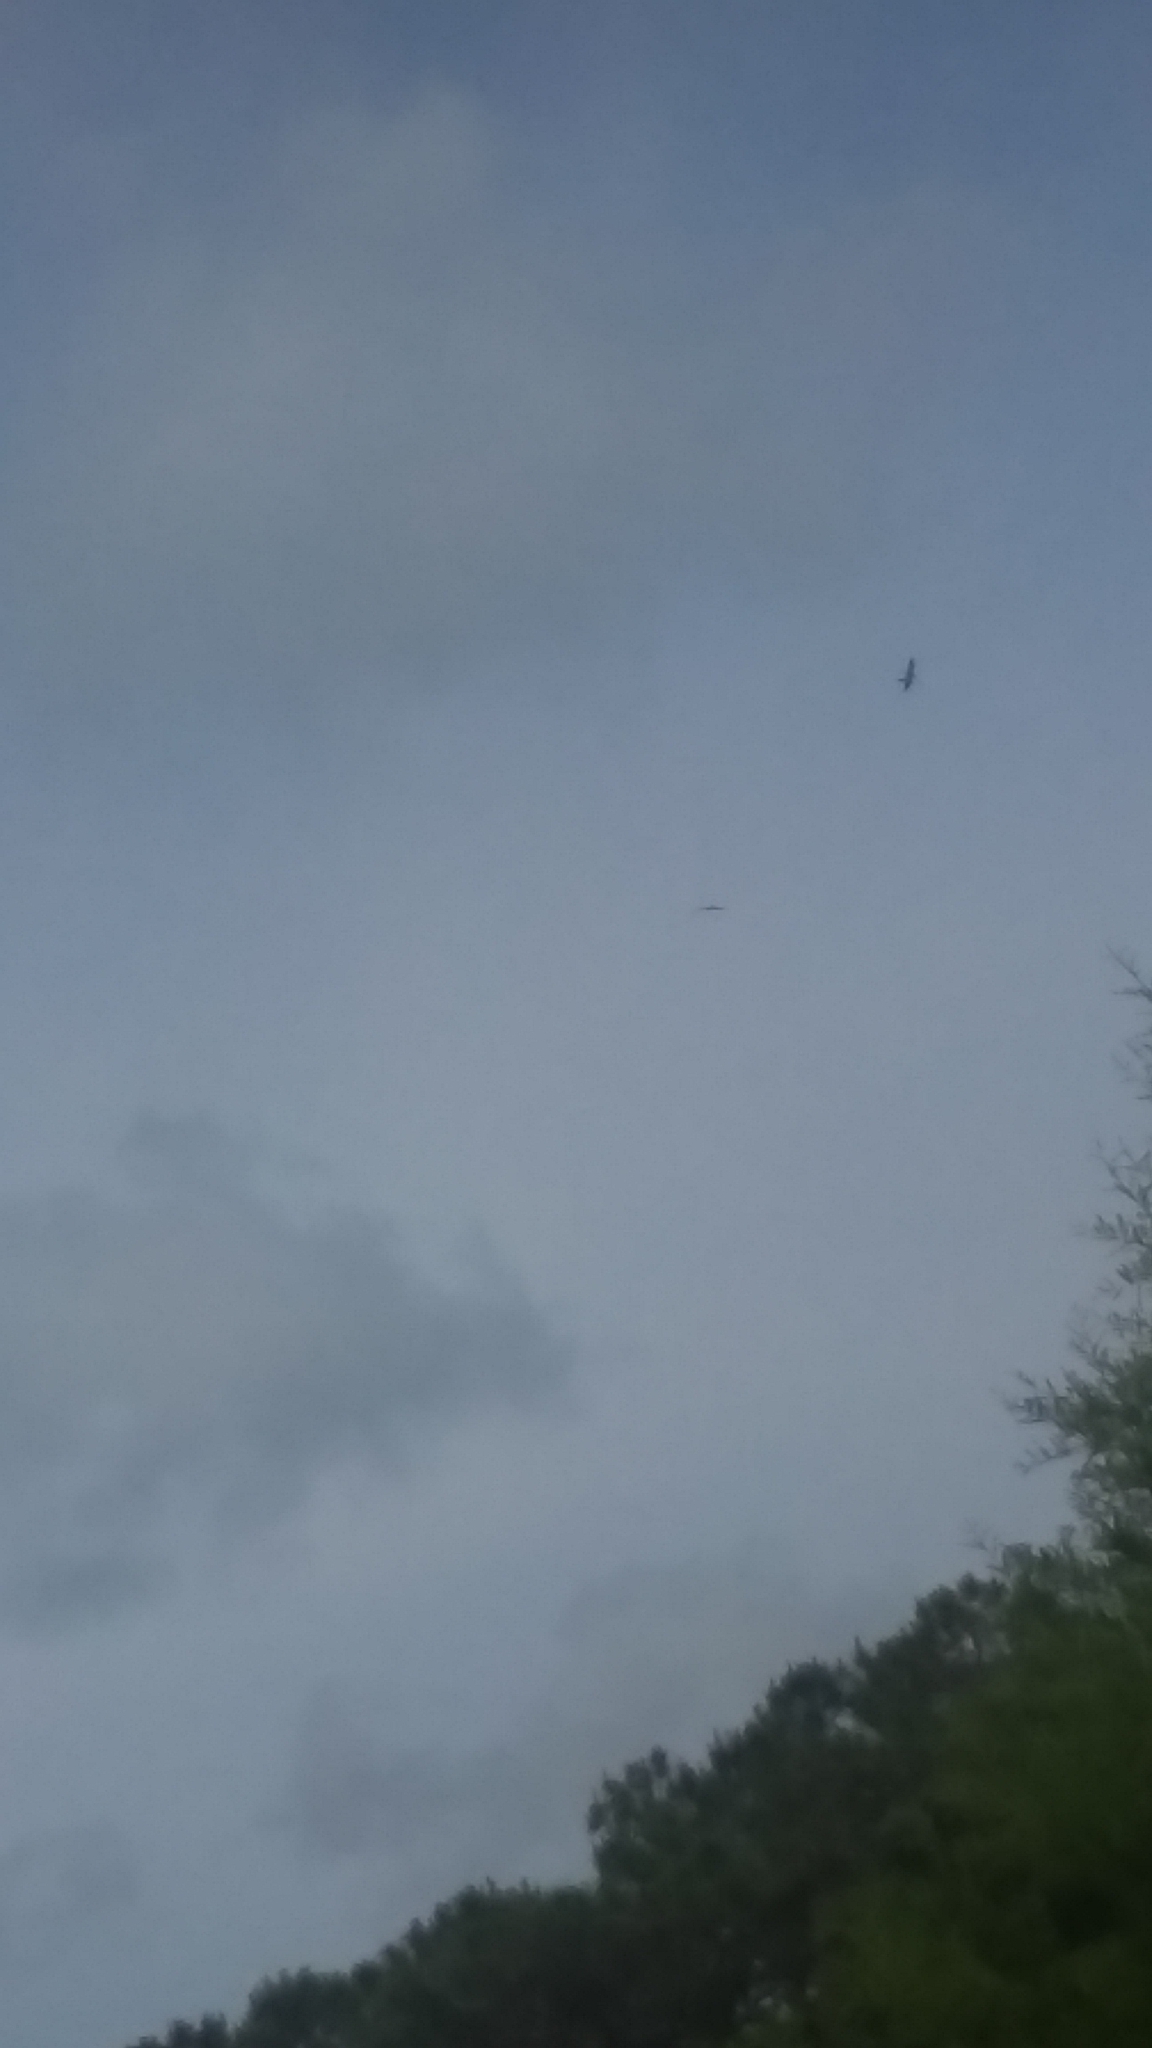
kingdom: Animalia
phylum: Chordata
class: Aves
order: Accipitriformes
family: Accipitridae
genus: Ictinia
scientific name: Ictinia mississippiensis
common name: Mississippi kite
